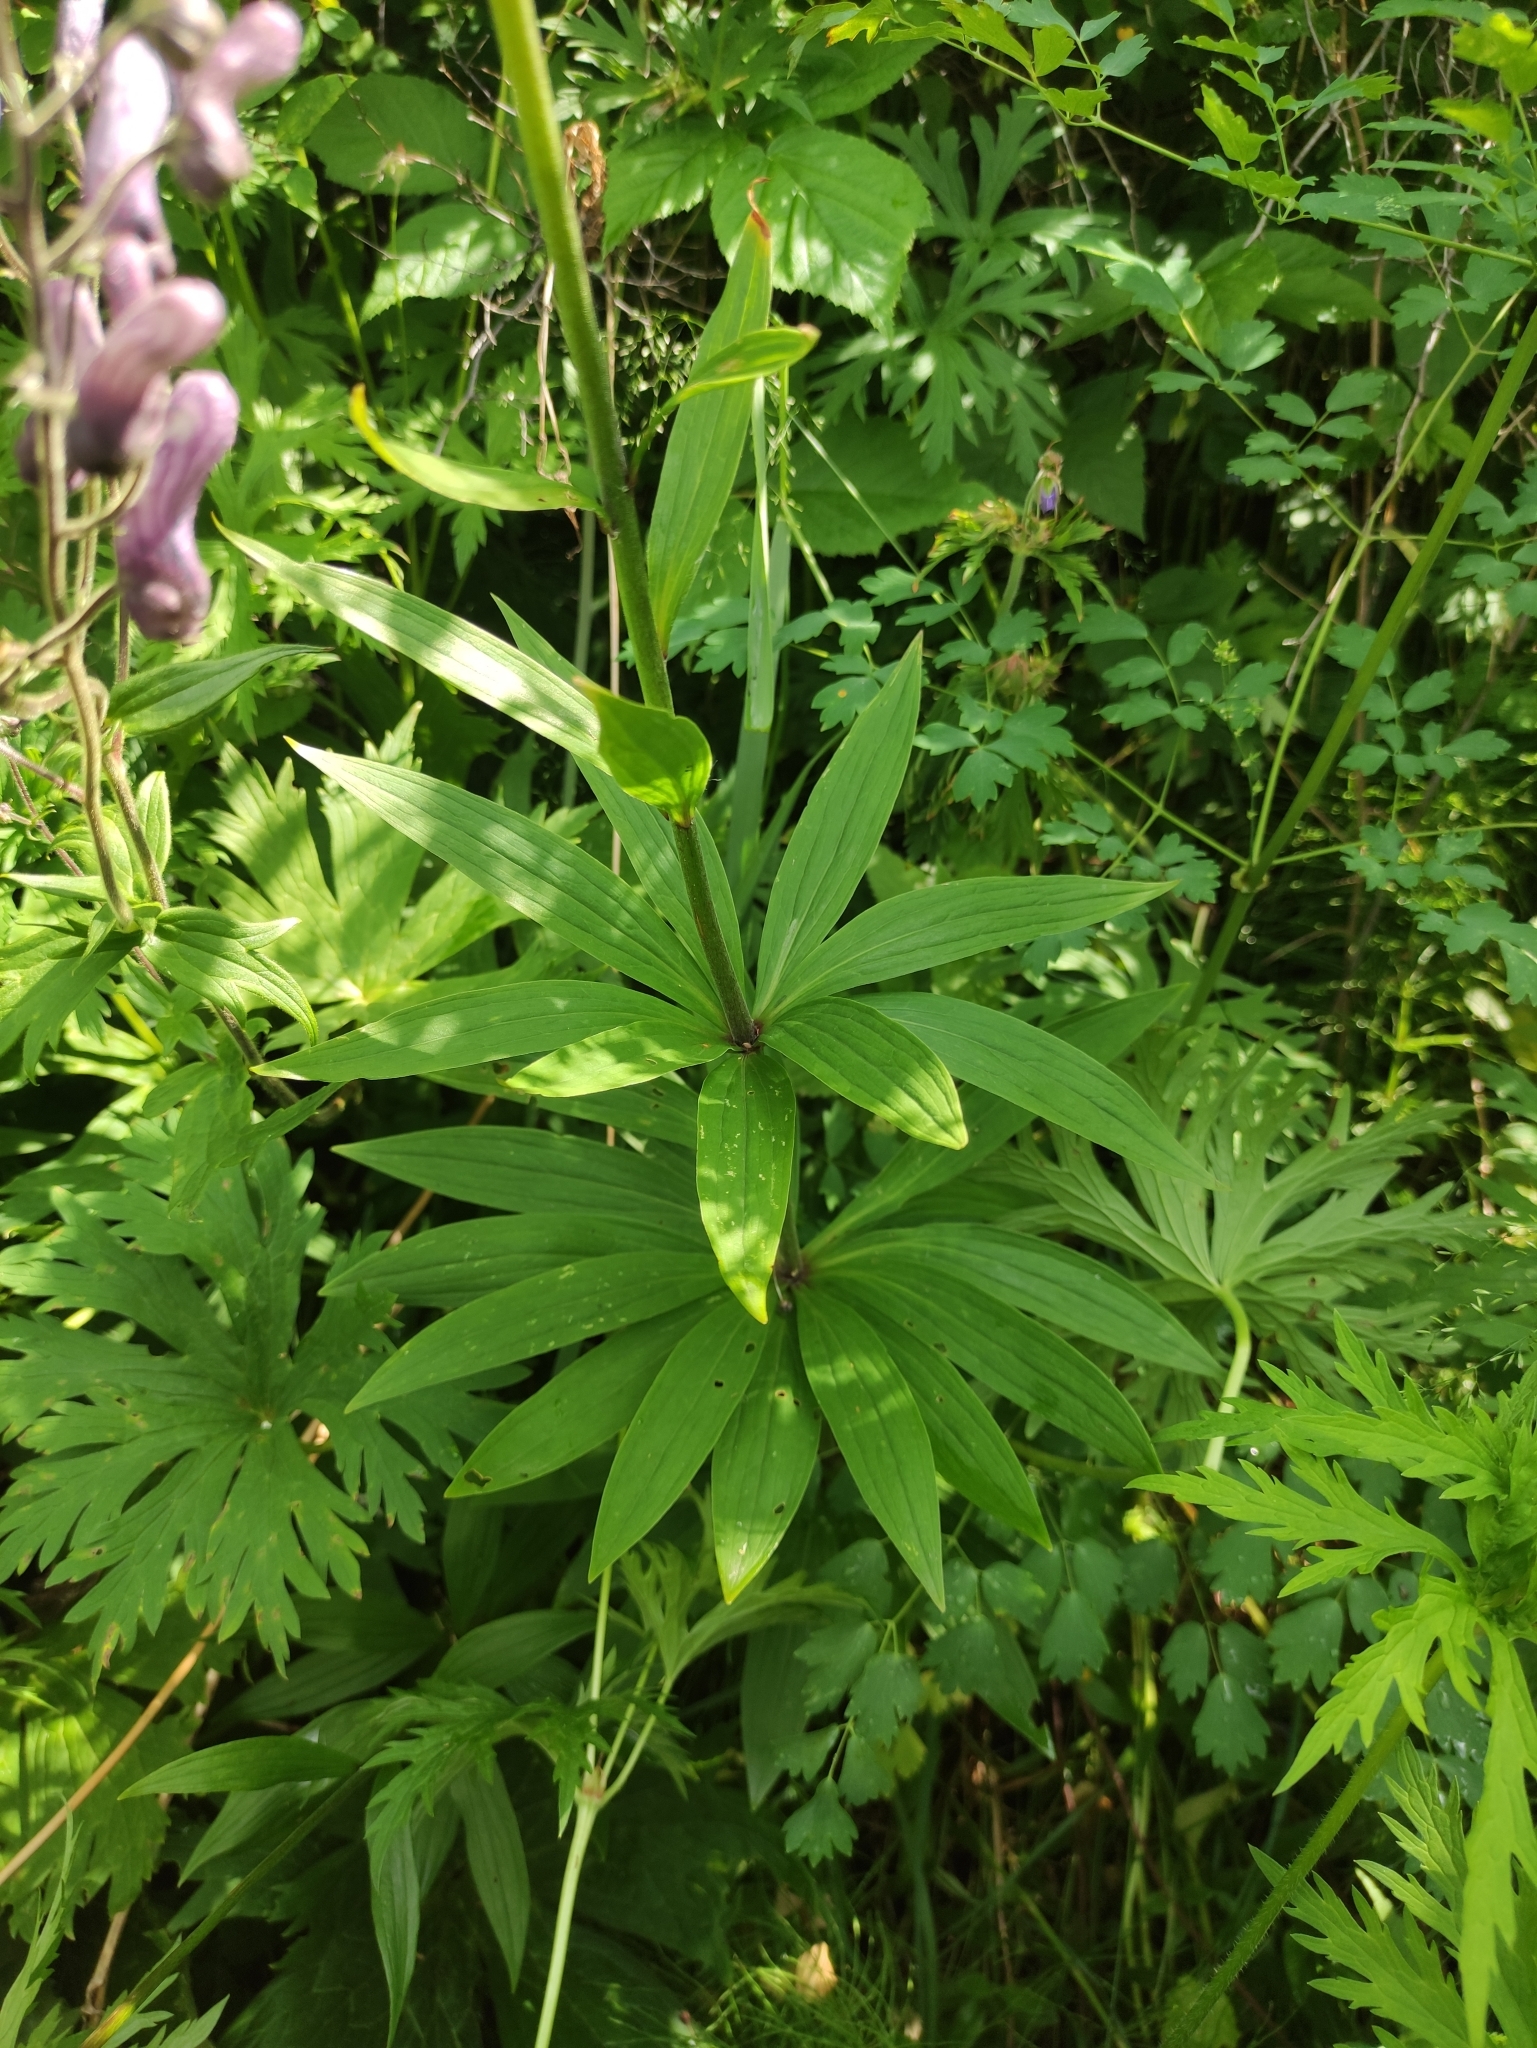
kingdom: Plantae
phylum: Tracheophyta
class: Liliopsida
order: Liliales
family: Liliaceae
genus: Lilium
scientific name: Lilium martagon
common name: Martagon lily
